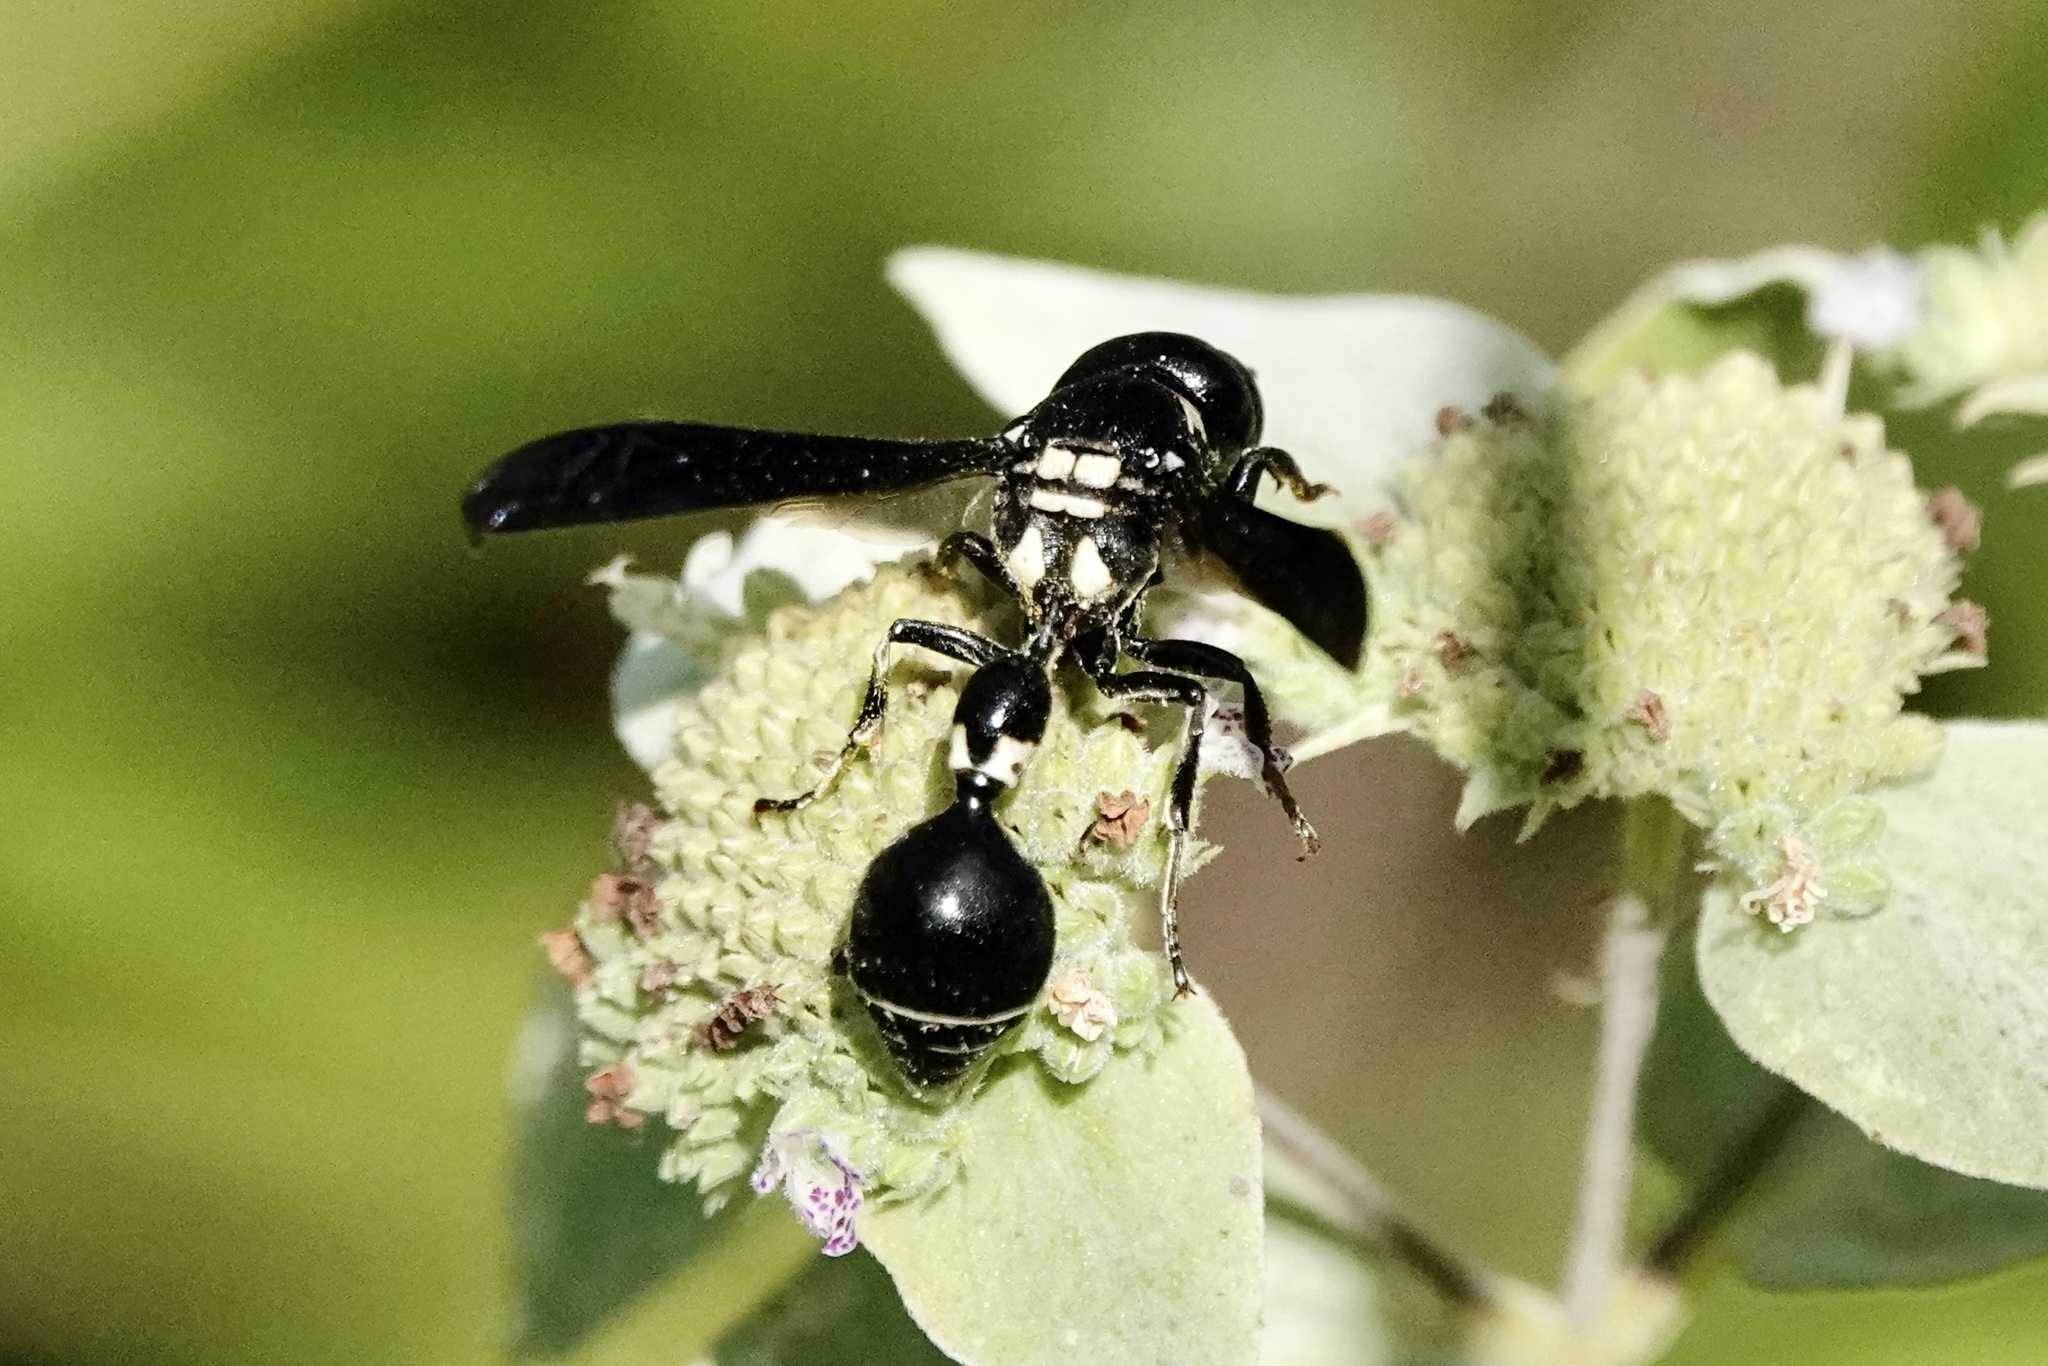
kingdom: Animalia
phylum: Arthropoda
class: Insecta
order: Hymenoptera
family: Eumenidae
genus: Zethus
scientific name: Zethus spinipes
